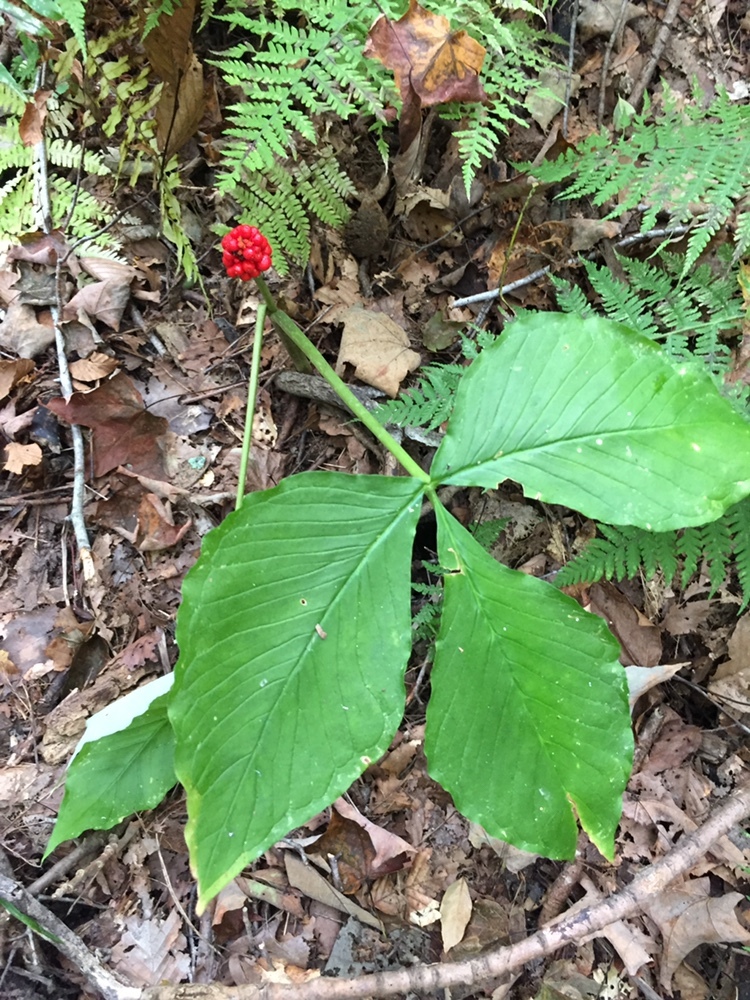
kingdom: Plantae
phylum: Tracheophyta
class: Liliopsida
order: Alismatales
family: Araceae
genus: Arisaema
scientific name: Arisaema triphyllum
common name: Jack-in-the-pulpit
